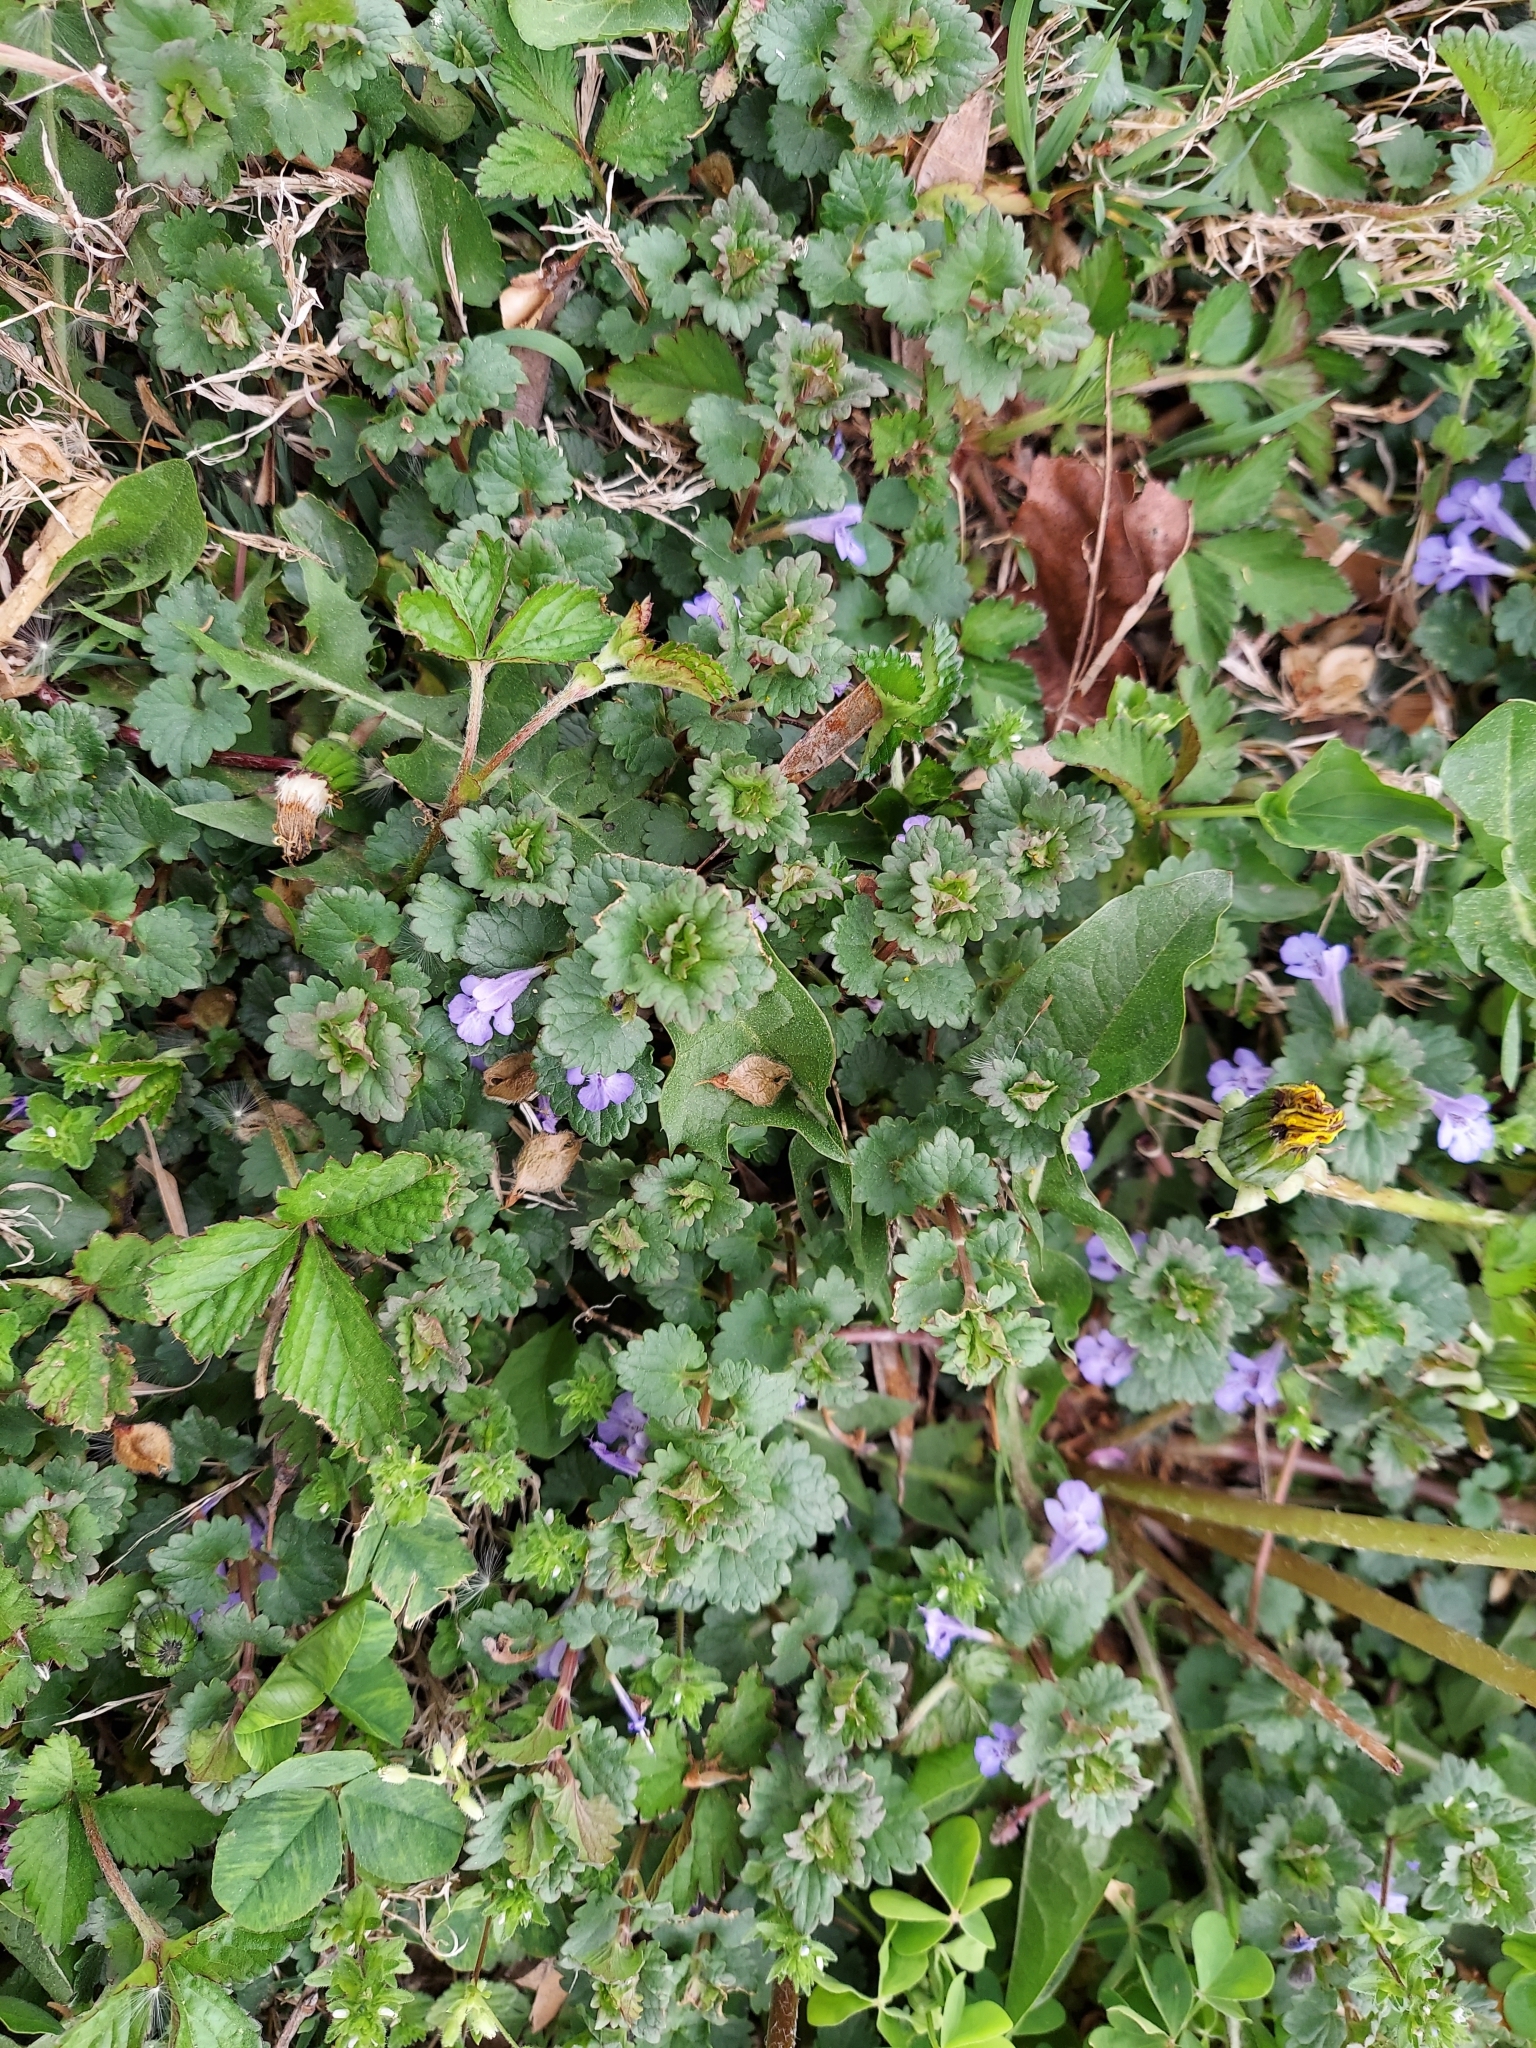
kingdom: Plantae
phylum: Tracheophyta
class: Magnoliopsida
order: Lamiales
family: Lamiaceae
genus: Glechoma
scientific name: Glechoma hederacea
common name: Ground ivy
